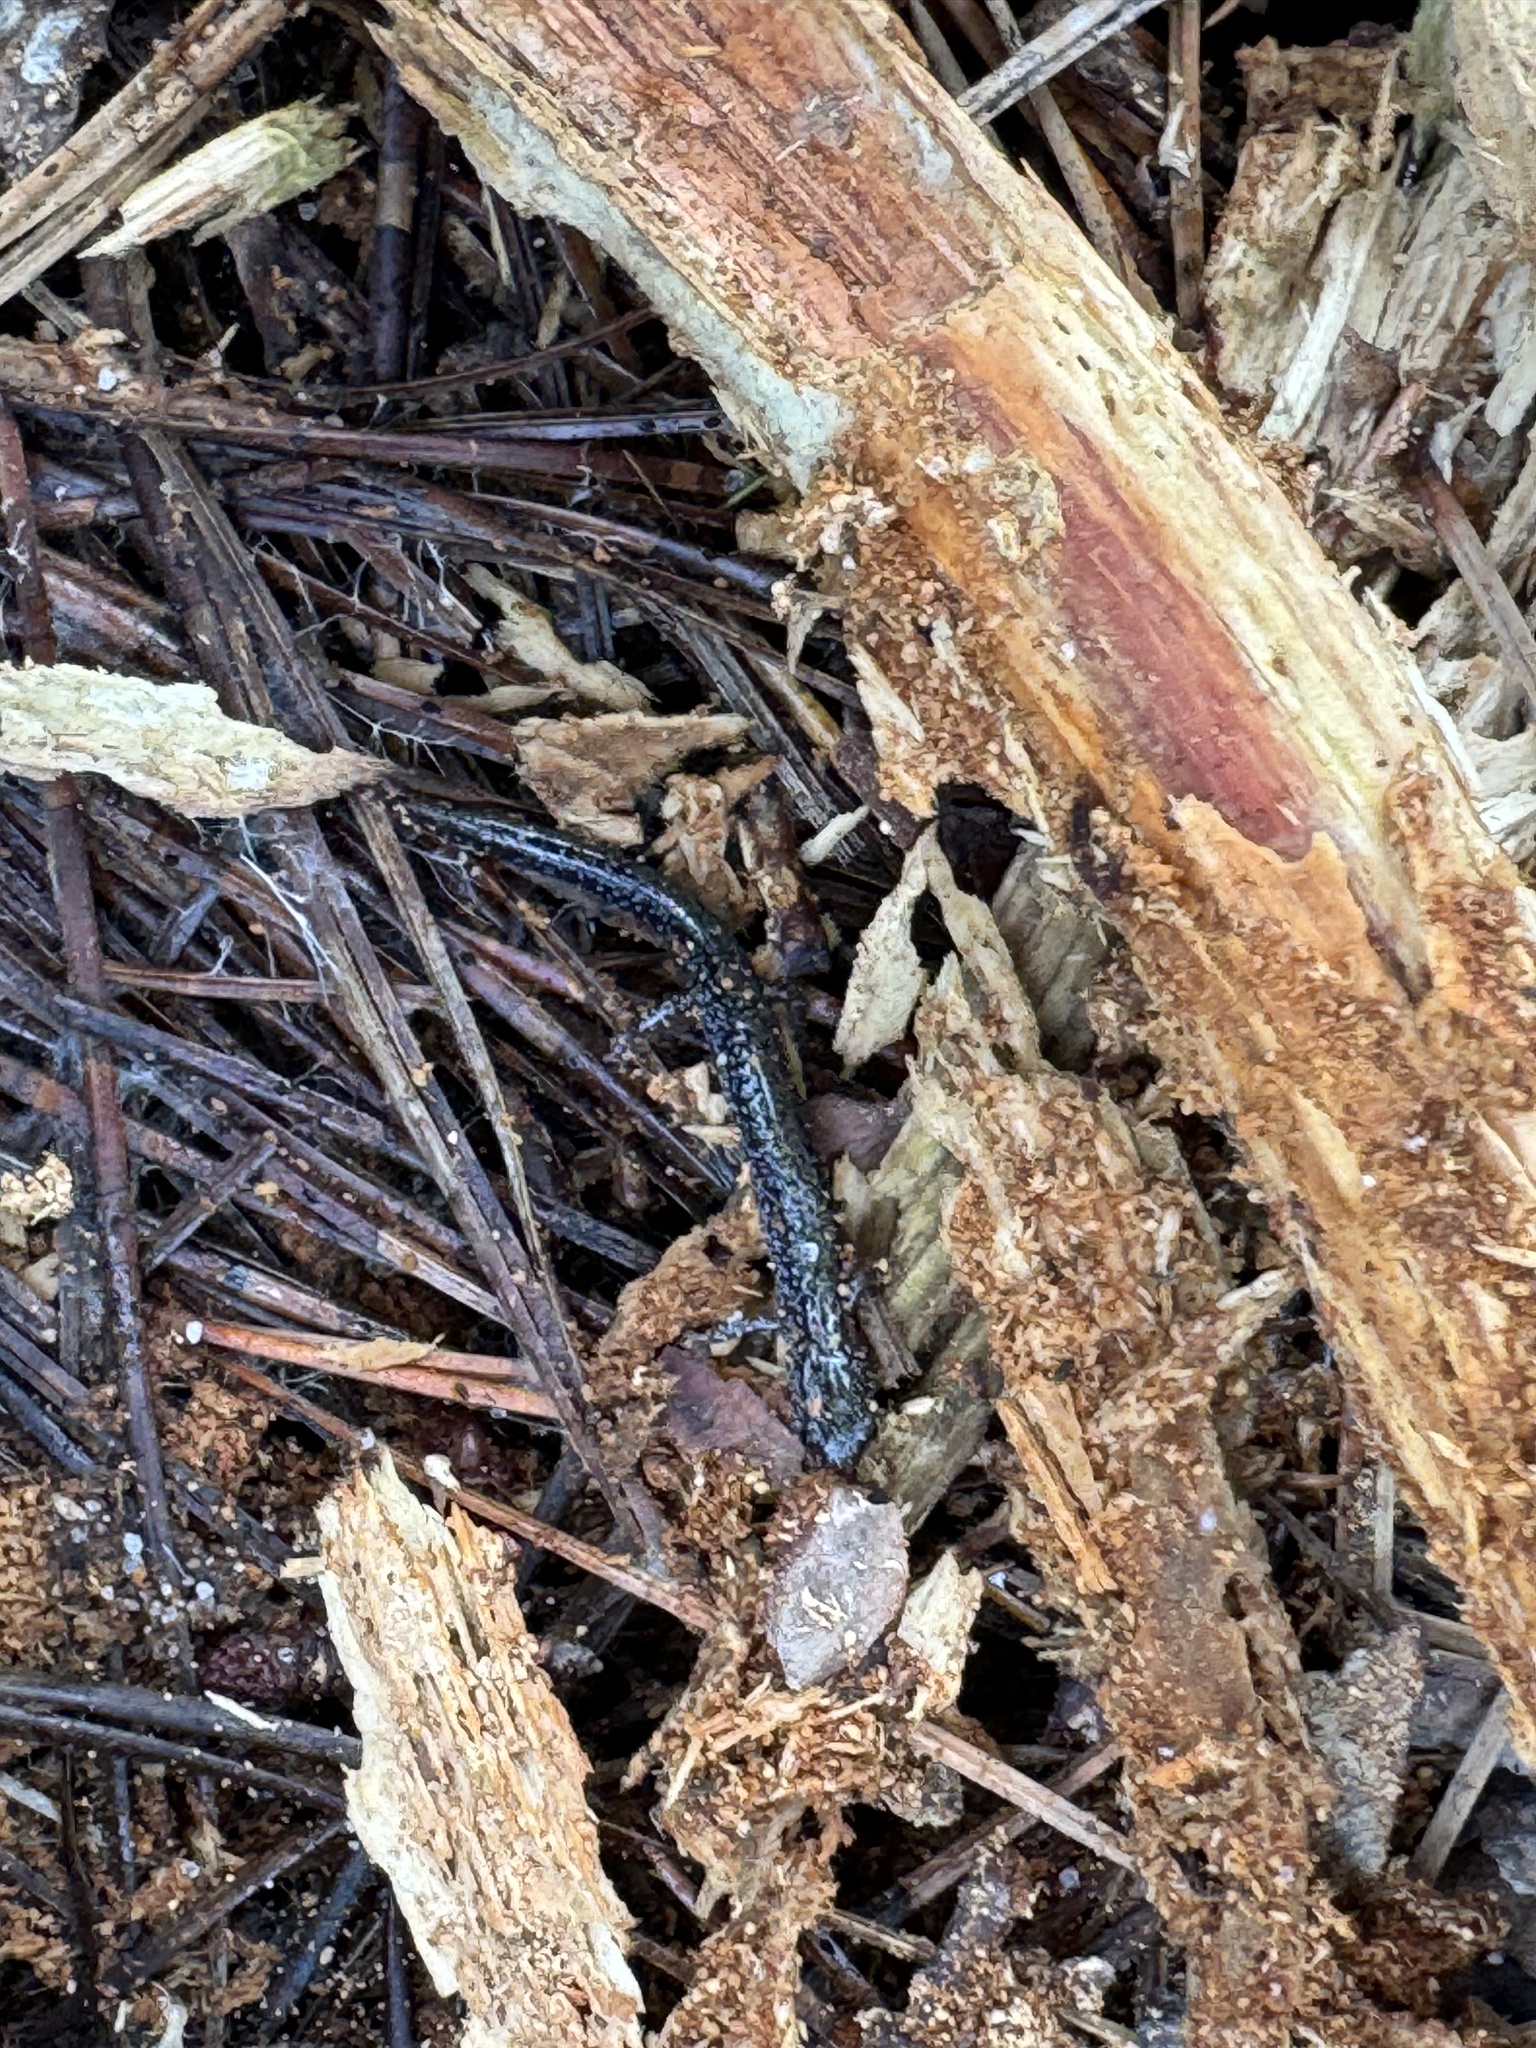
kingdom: Animalia
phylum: Chordata
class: Amphibia
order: Caudata
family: Plethodontidae
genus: Plethodon
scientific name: Plethodon cinereus
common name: Redback salamander
